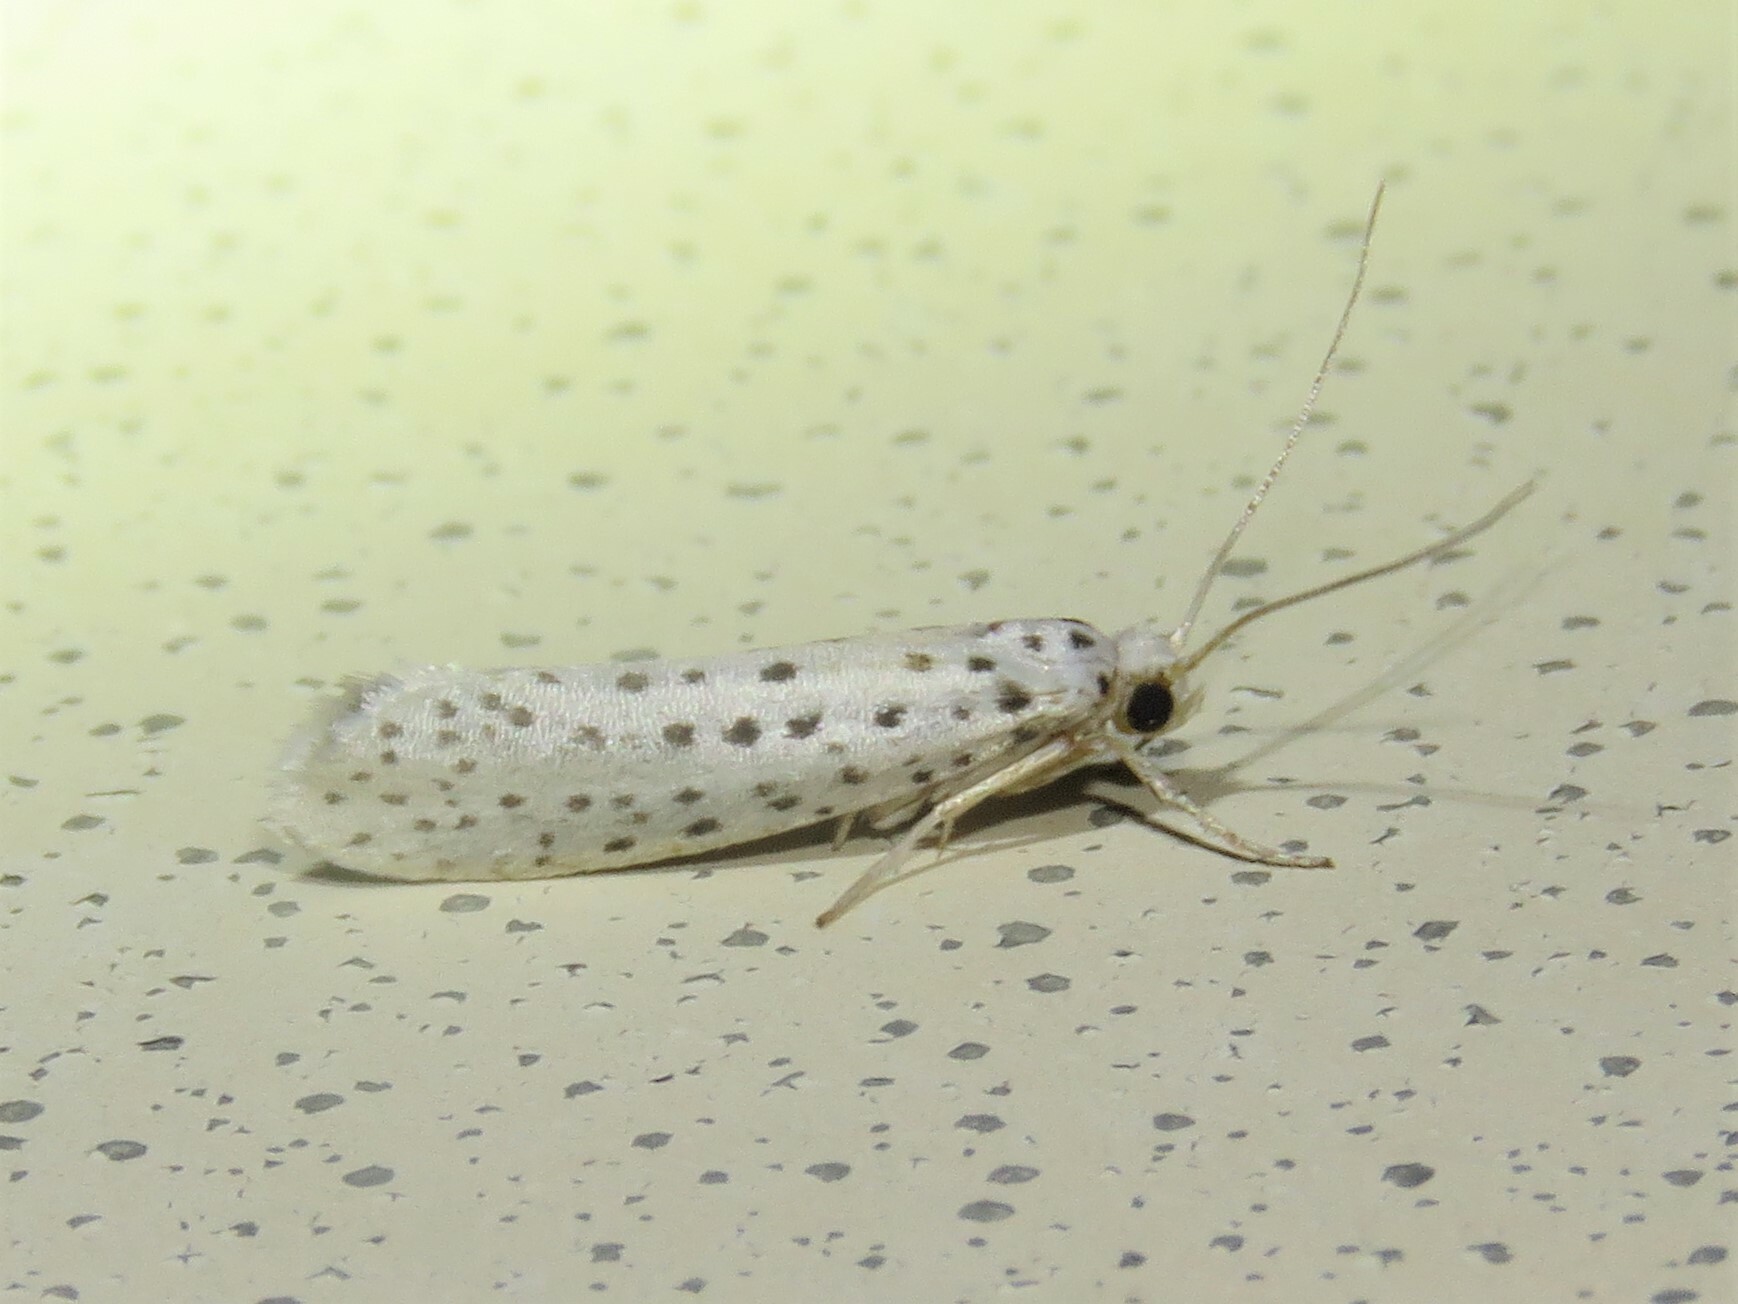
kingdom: Animalia
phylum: Arthropoda
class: Insecta
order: Lepidoptera
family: Yponomeutidae
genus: Yponomeuta
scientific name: Yponomeuta multipunctella
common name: American ermine moth
